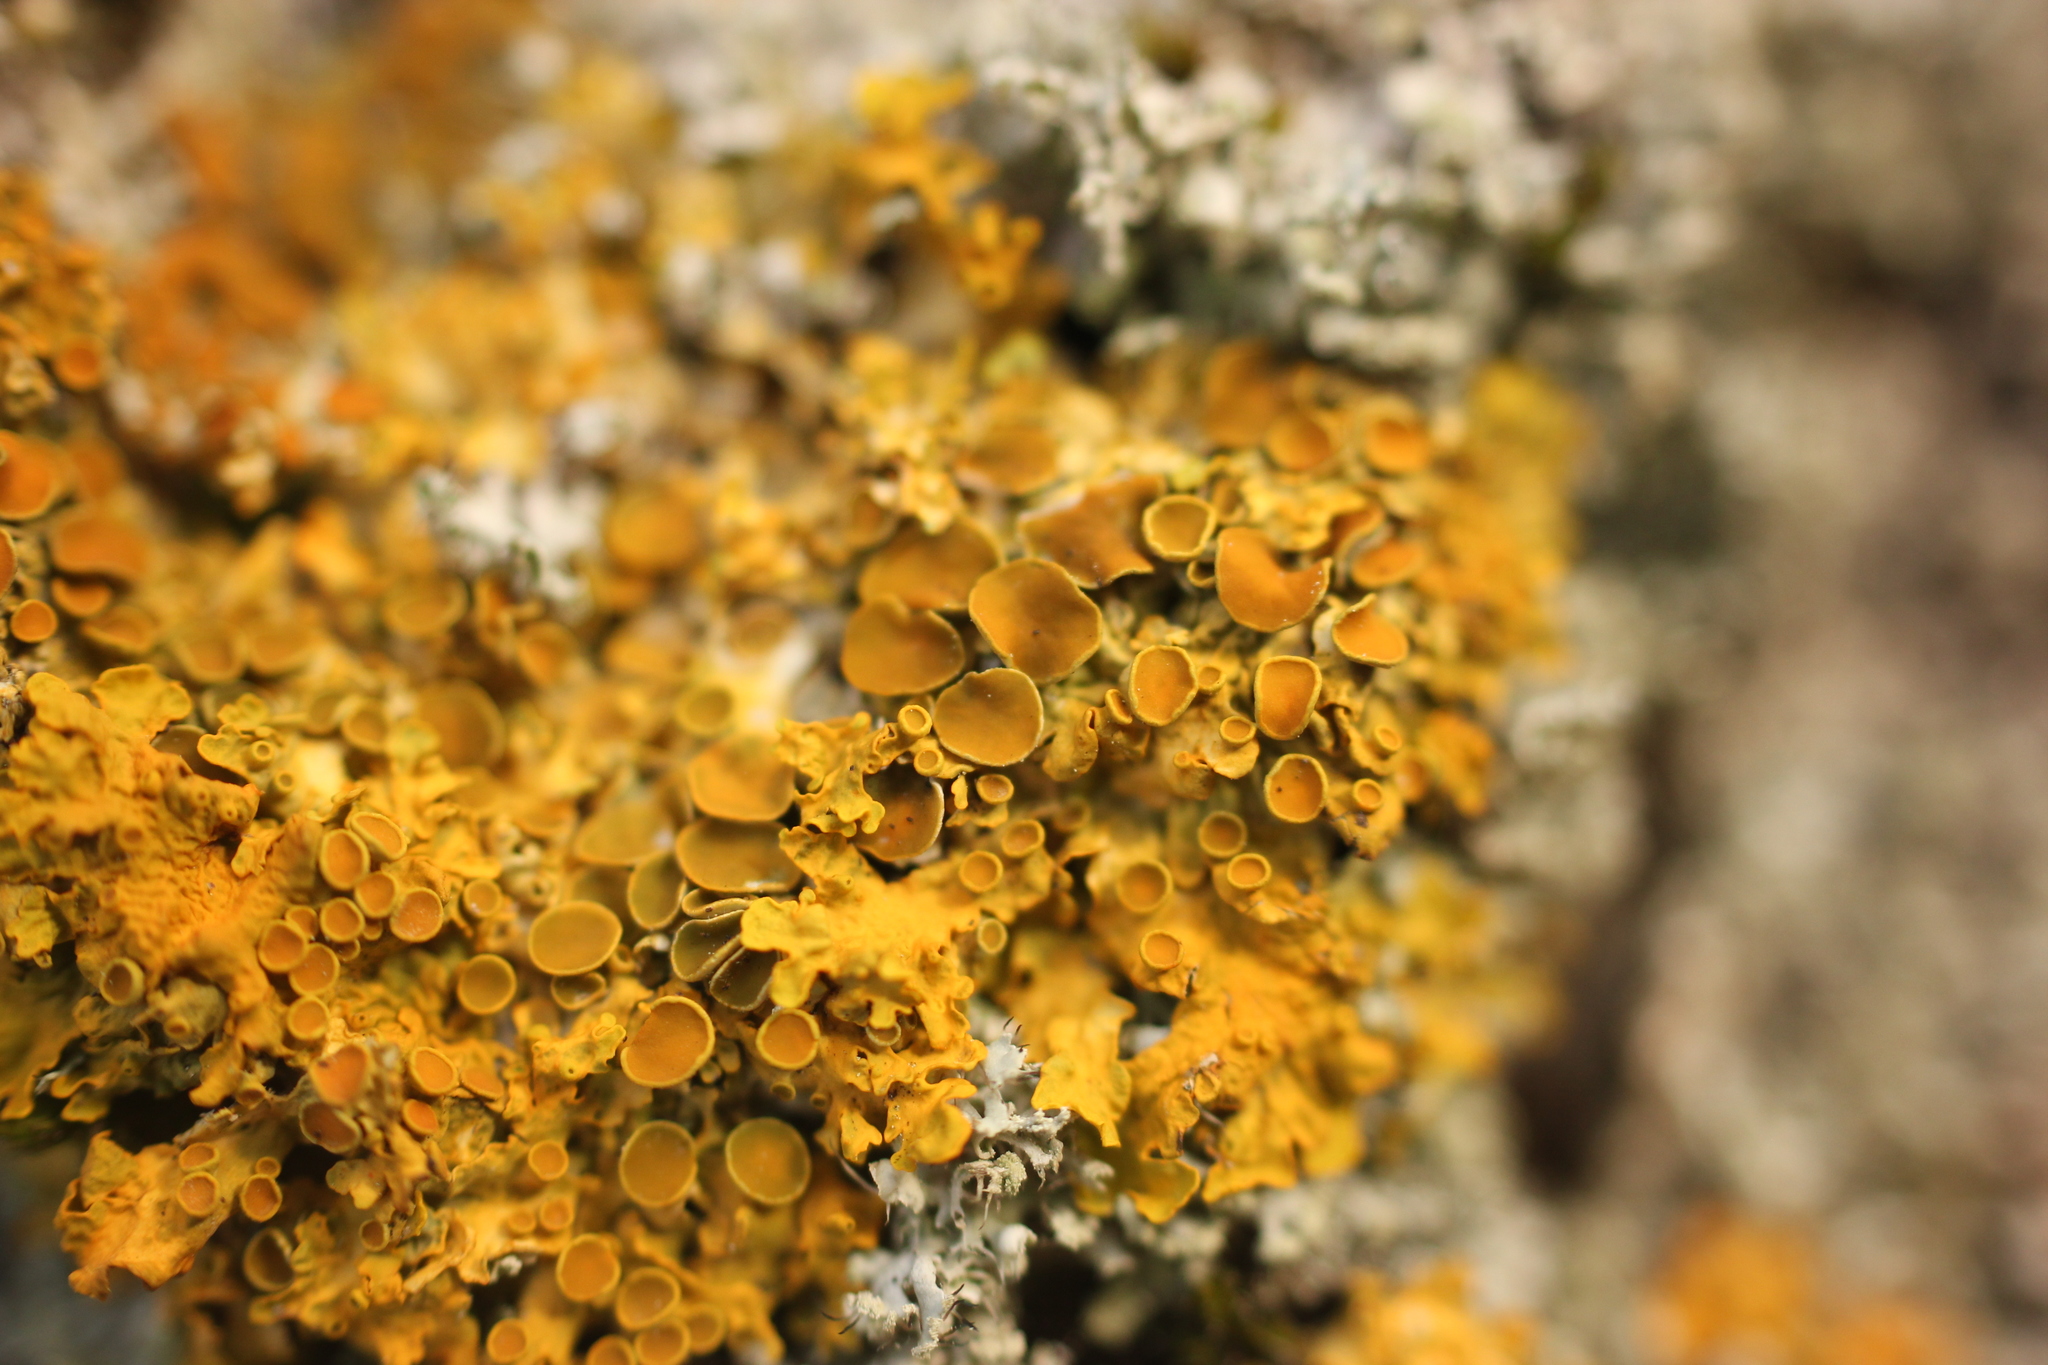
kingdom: Fungi
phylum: Ascomycota
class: Lecanoromycetes
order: Teloschistales
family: Teloschistaceae
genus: Xanthoria
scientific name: Xanthoria parietina
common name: Common orange lichen
